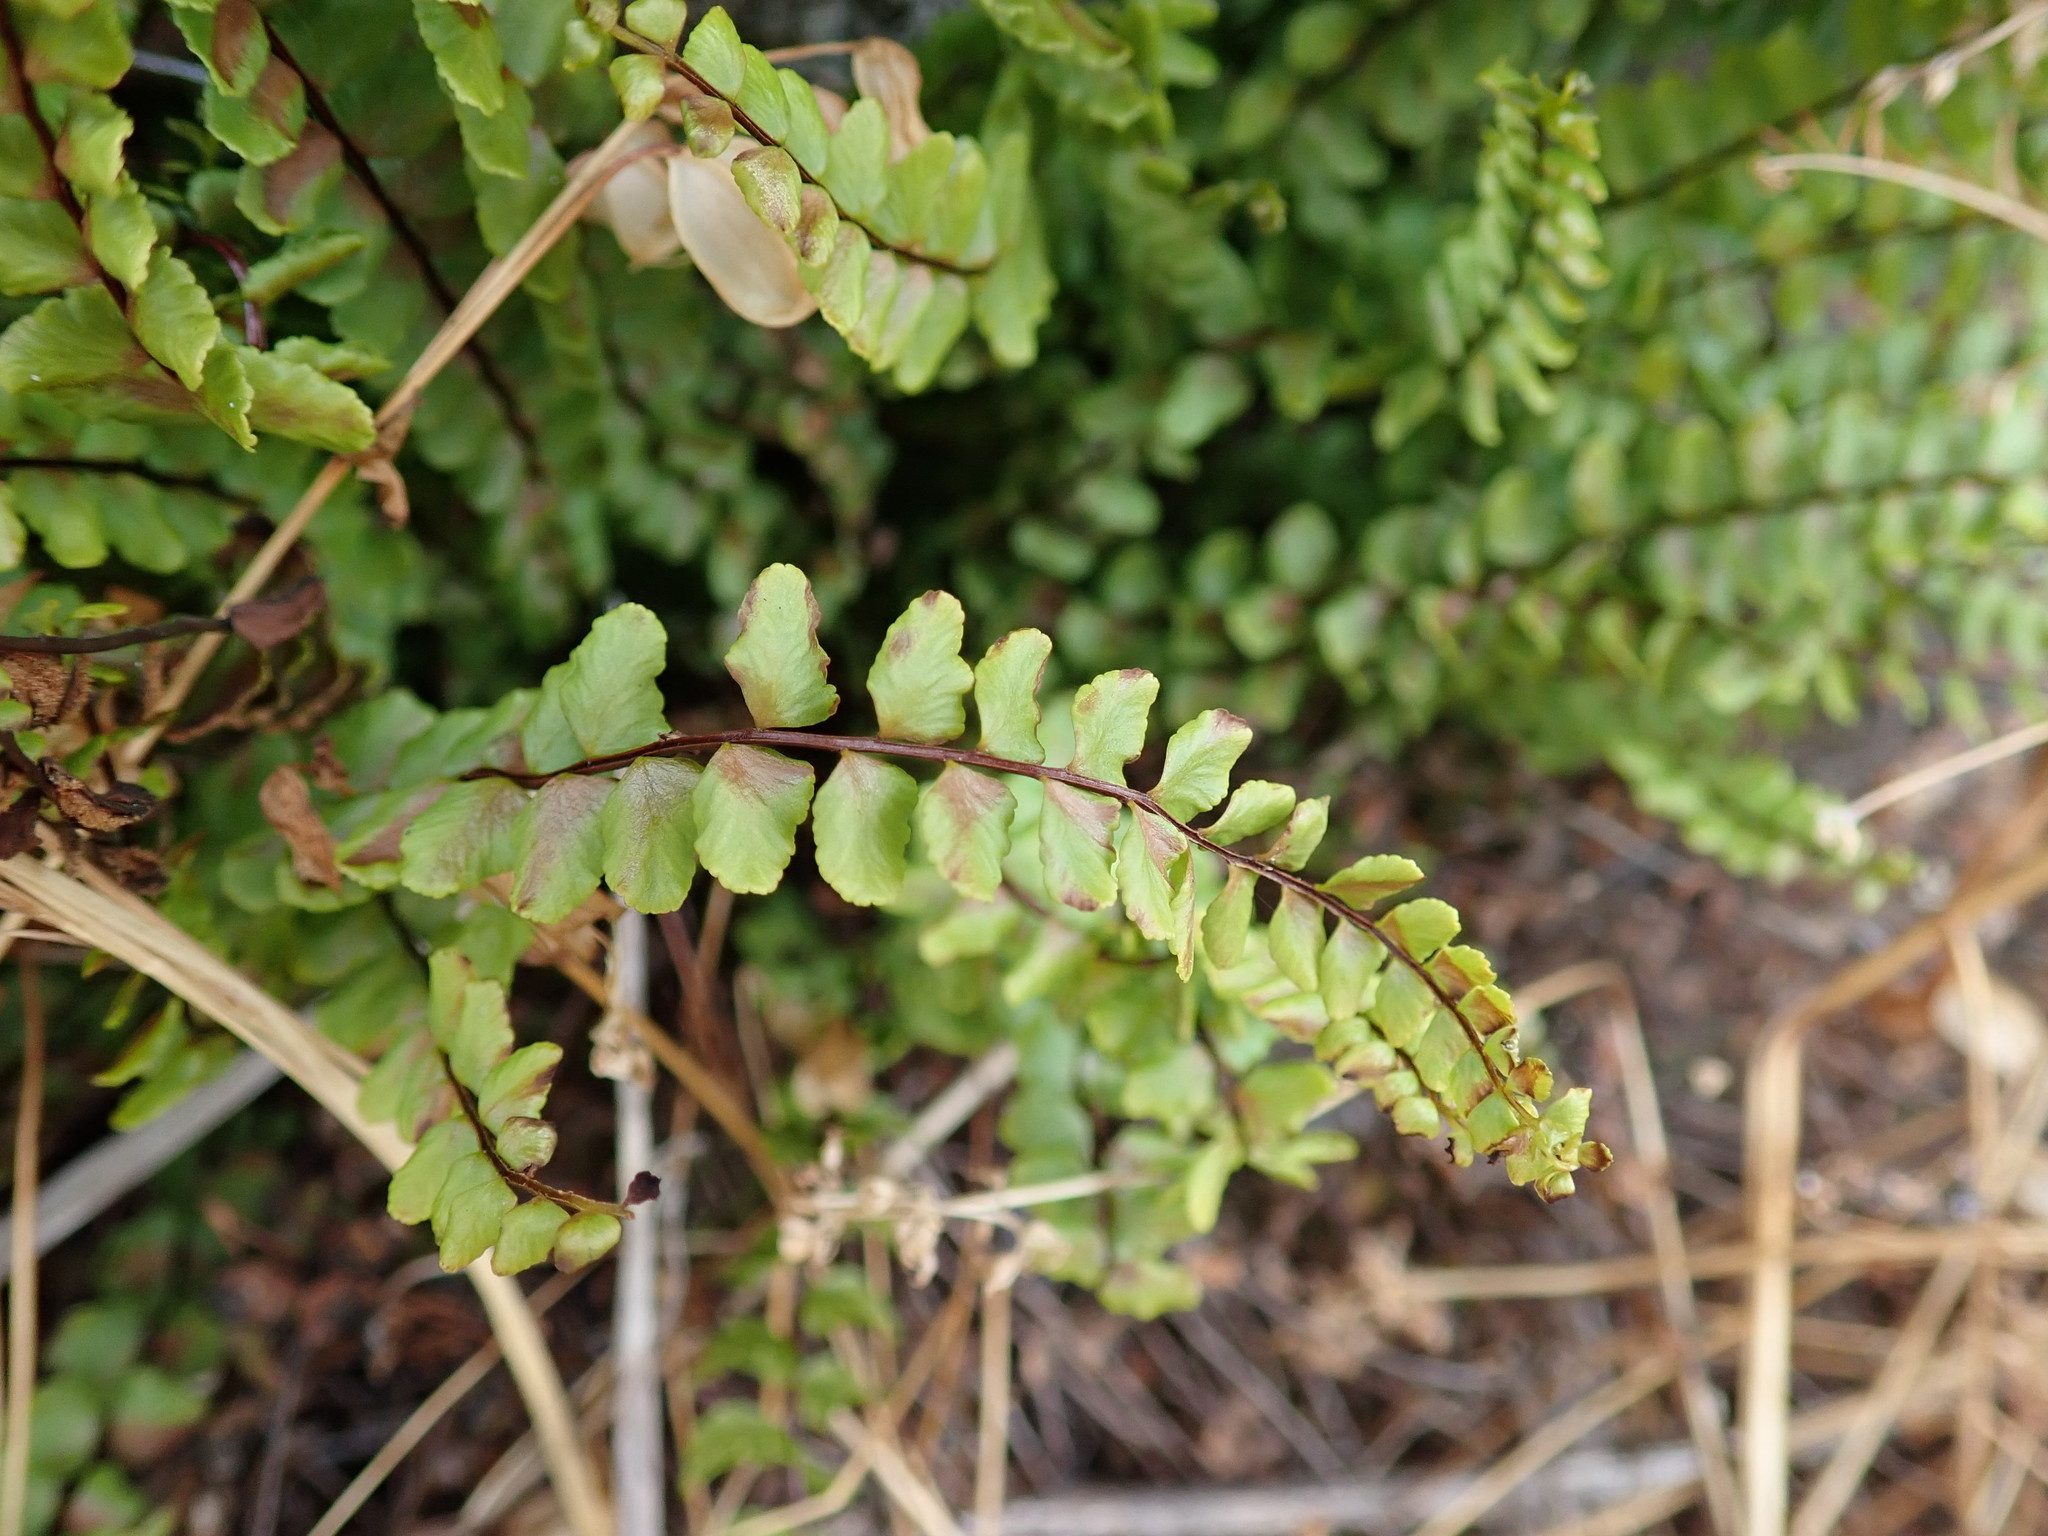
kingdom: Plantae
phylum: Tracheophyta
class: Polypodiopsida
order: Polypodiales
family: Aspleniaceae
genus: Asplenium
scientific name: Asplenium trichomanes
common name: Maidenhair spleenwort
